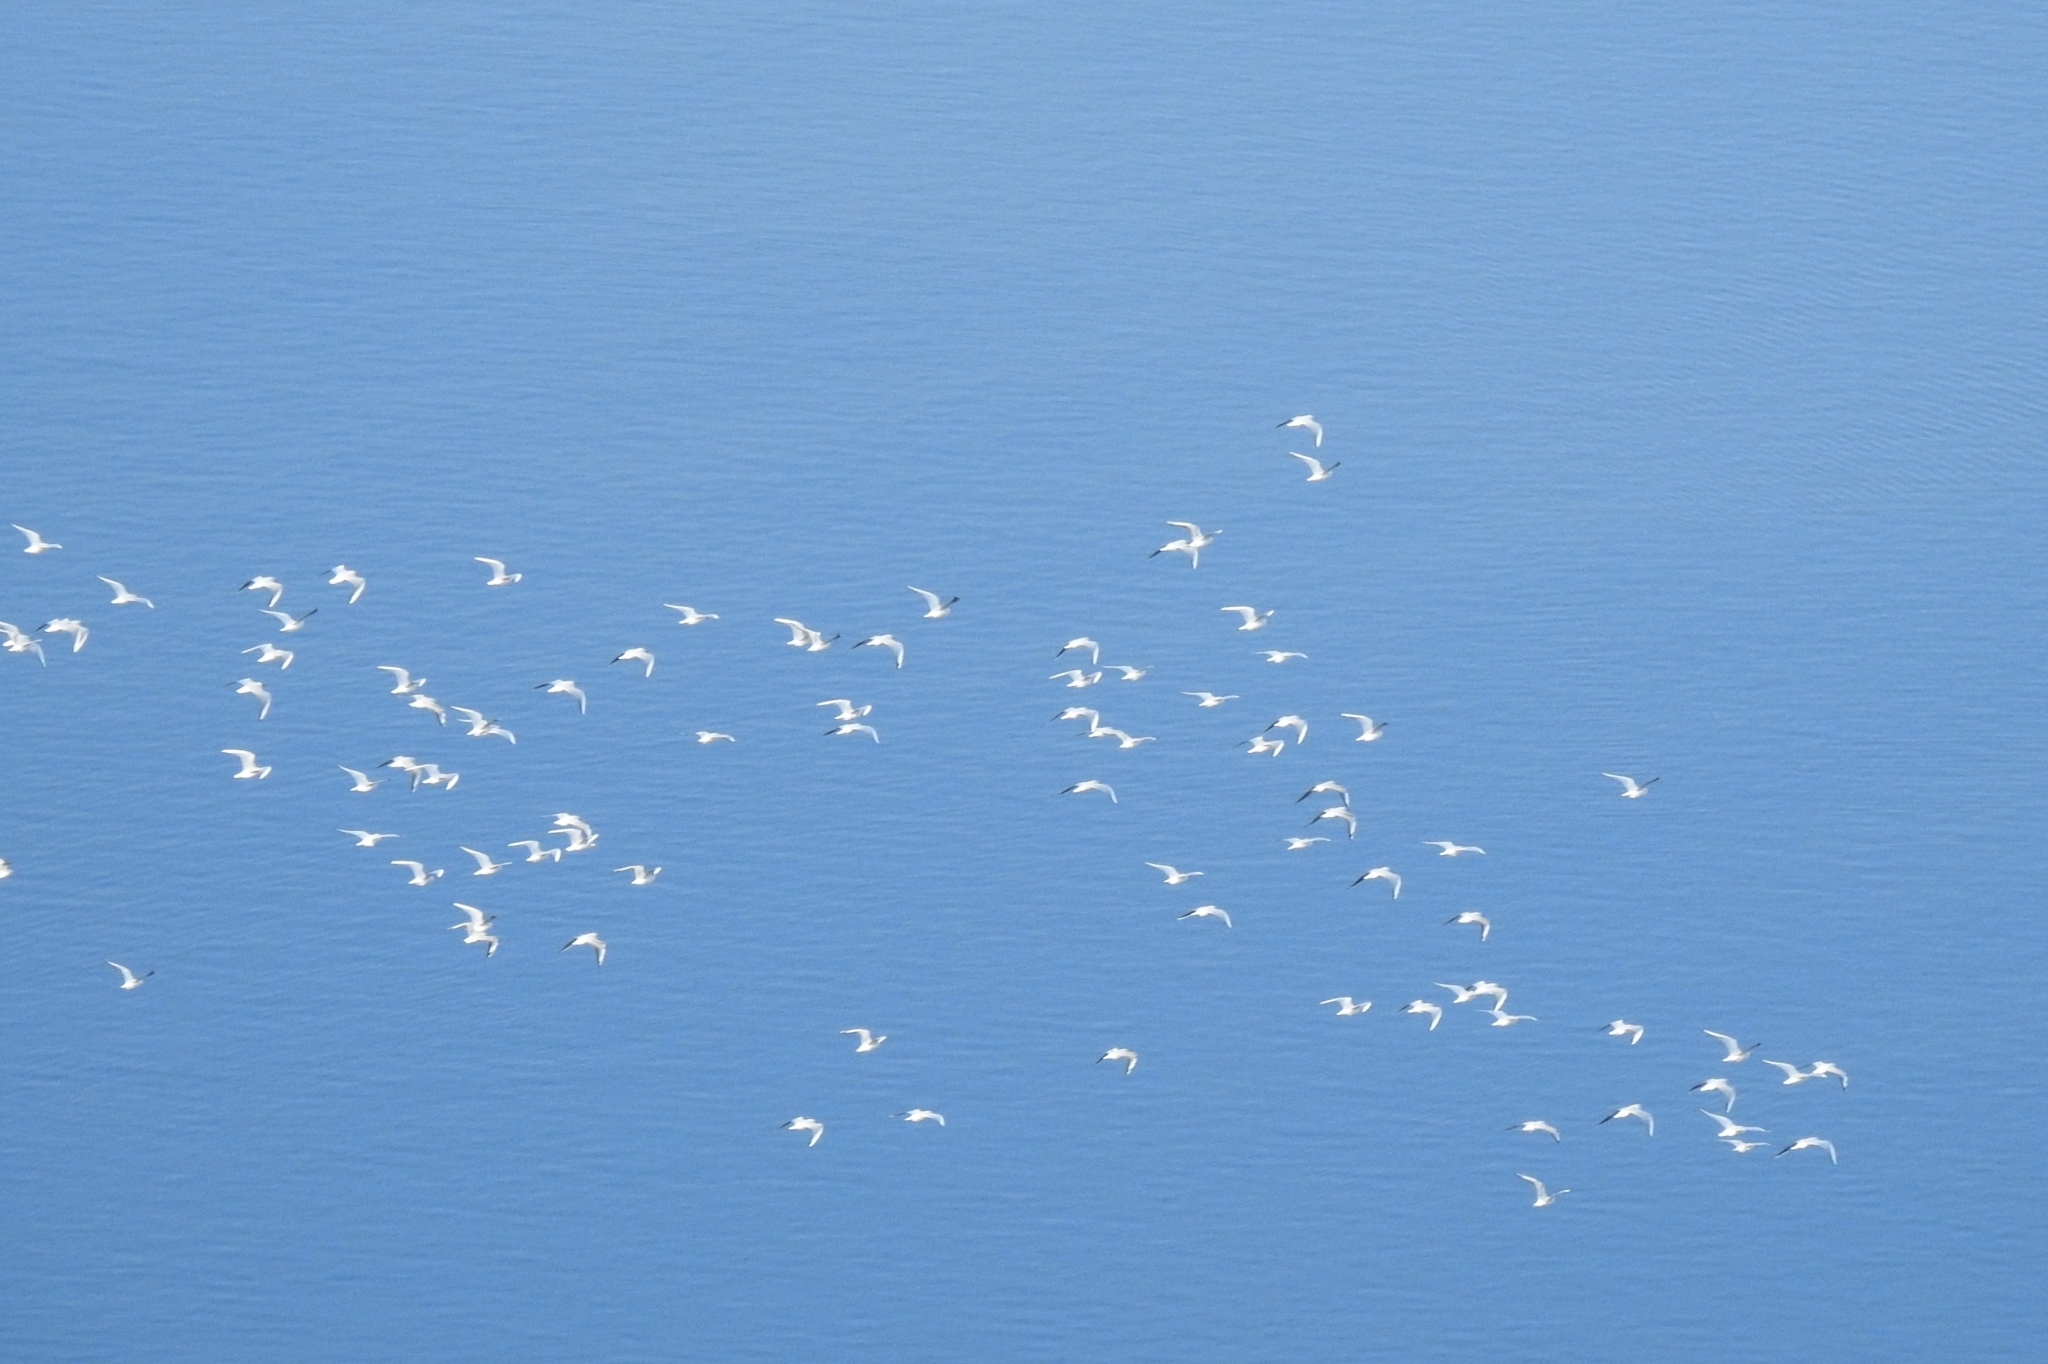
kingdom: Animalia
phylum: Chordata
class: Aves
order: Charadriiformes
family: Laridae
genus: Chroicocephalus
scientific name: Chroicocephalus ridibundus
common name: Black-headed gull
